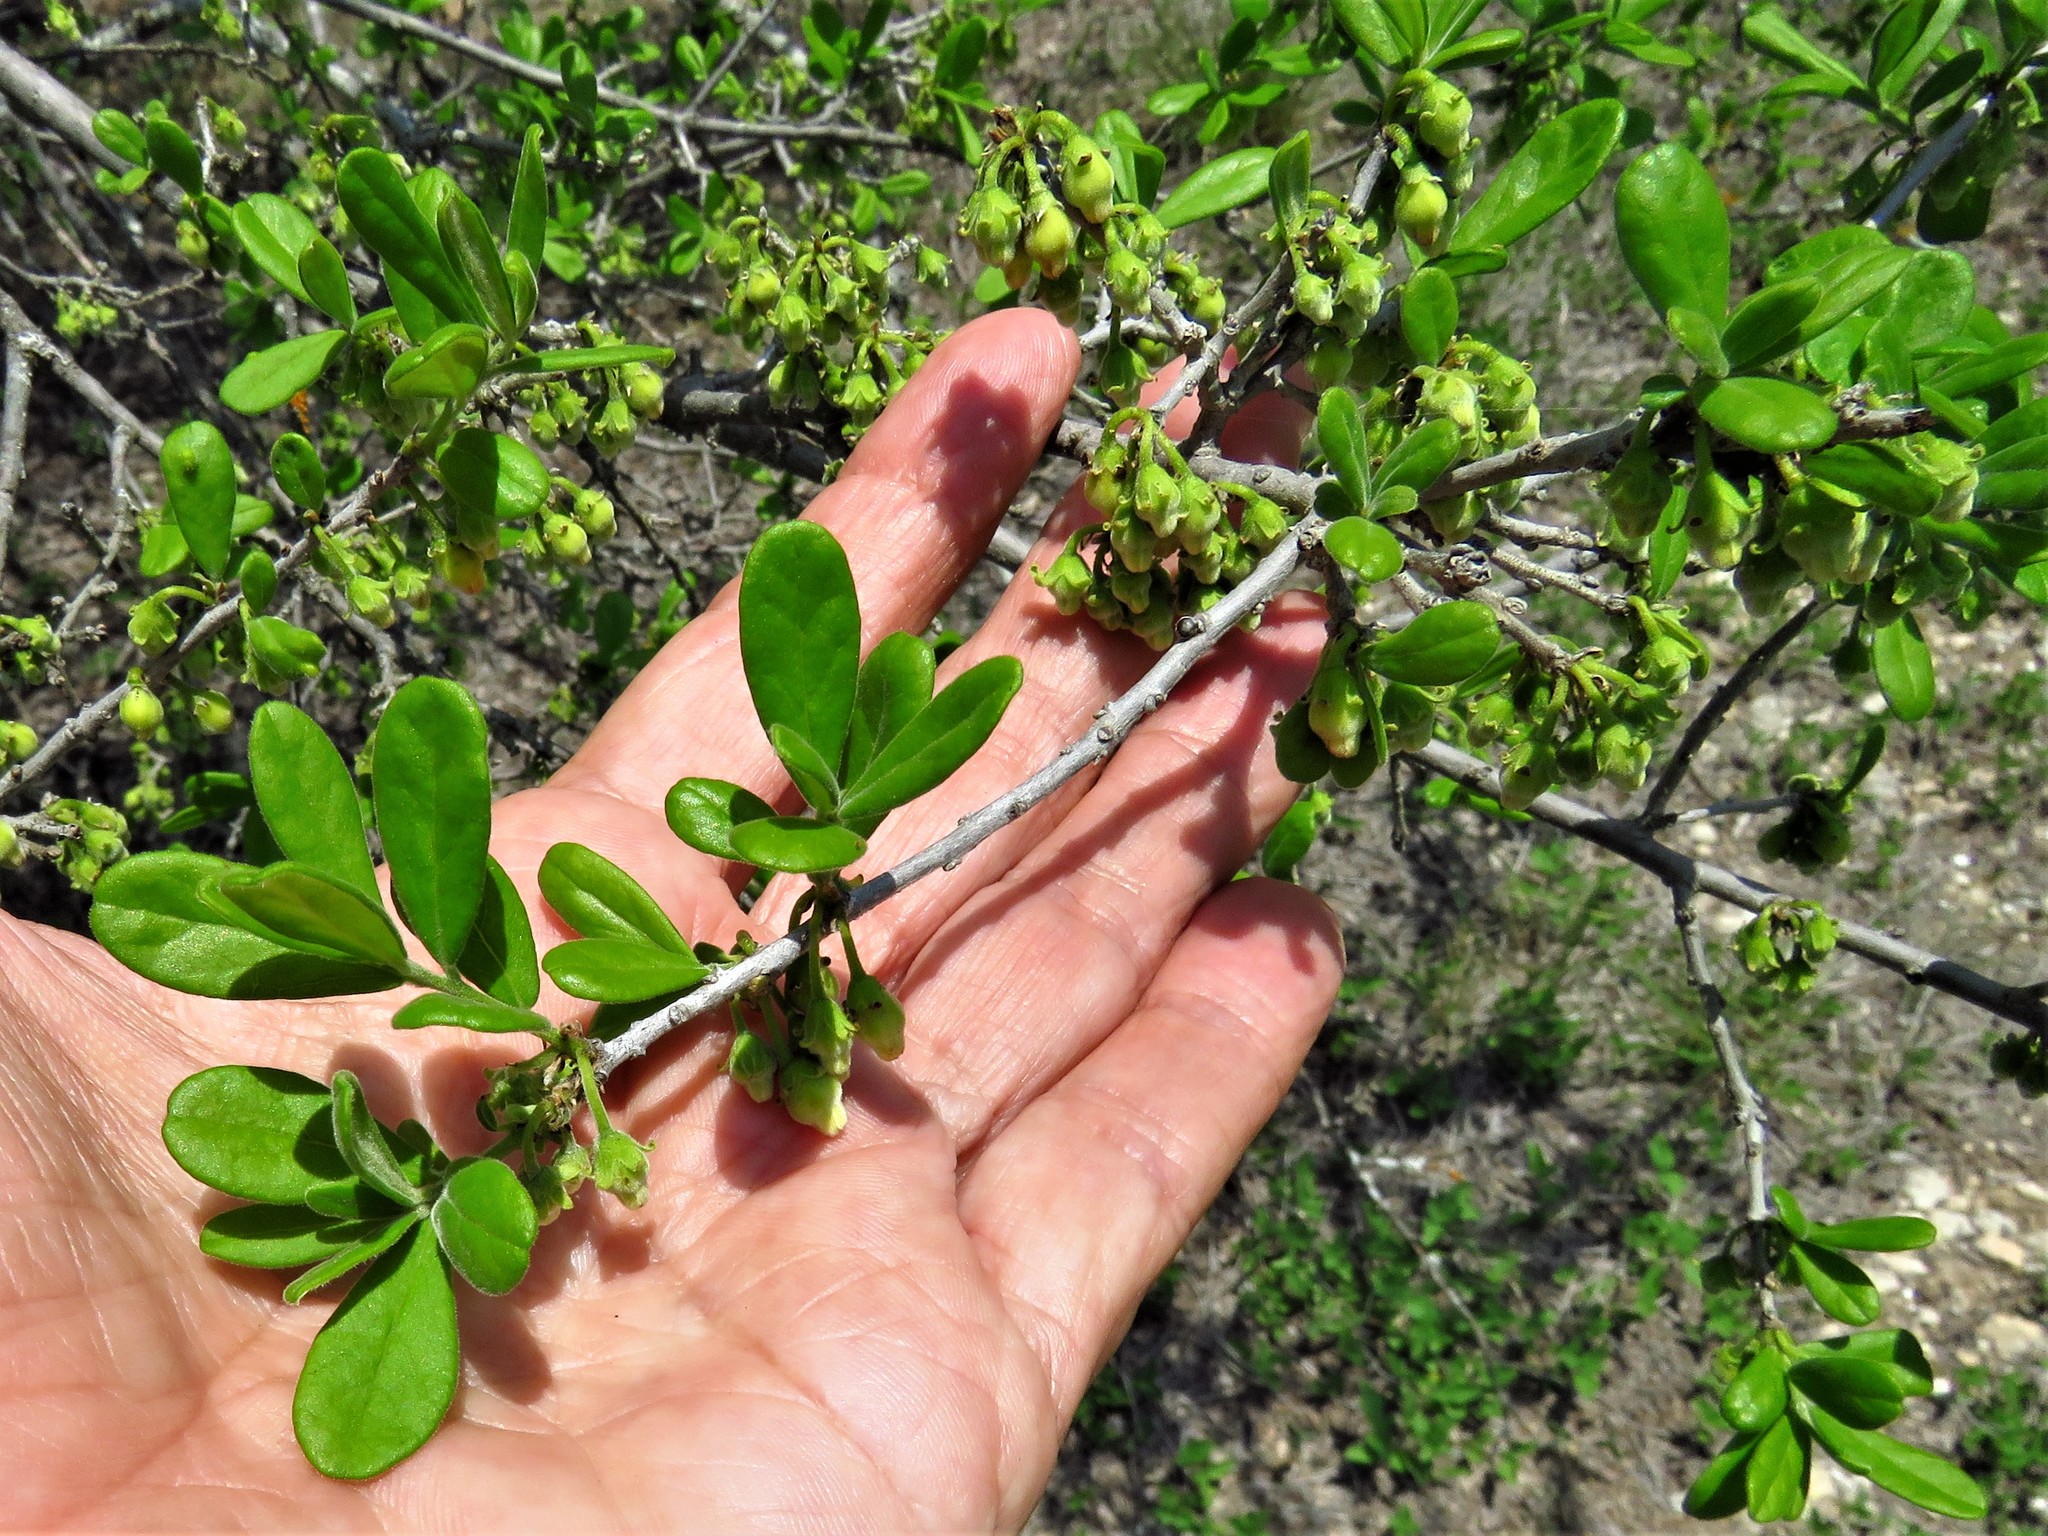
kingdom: Plantae
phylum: Tracheophyta
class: Magnoliopsida
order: Ericales
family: Ebenaceae
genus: Diospyros
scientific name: Diospyros texana
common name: Texas persimmon
